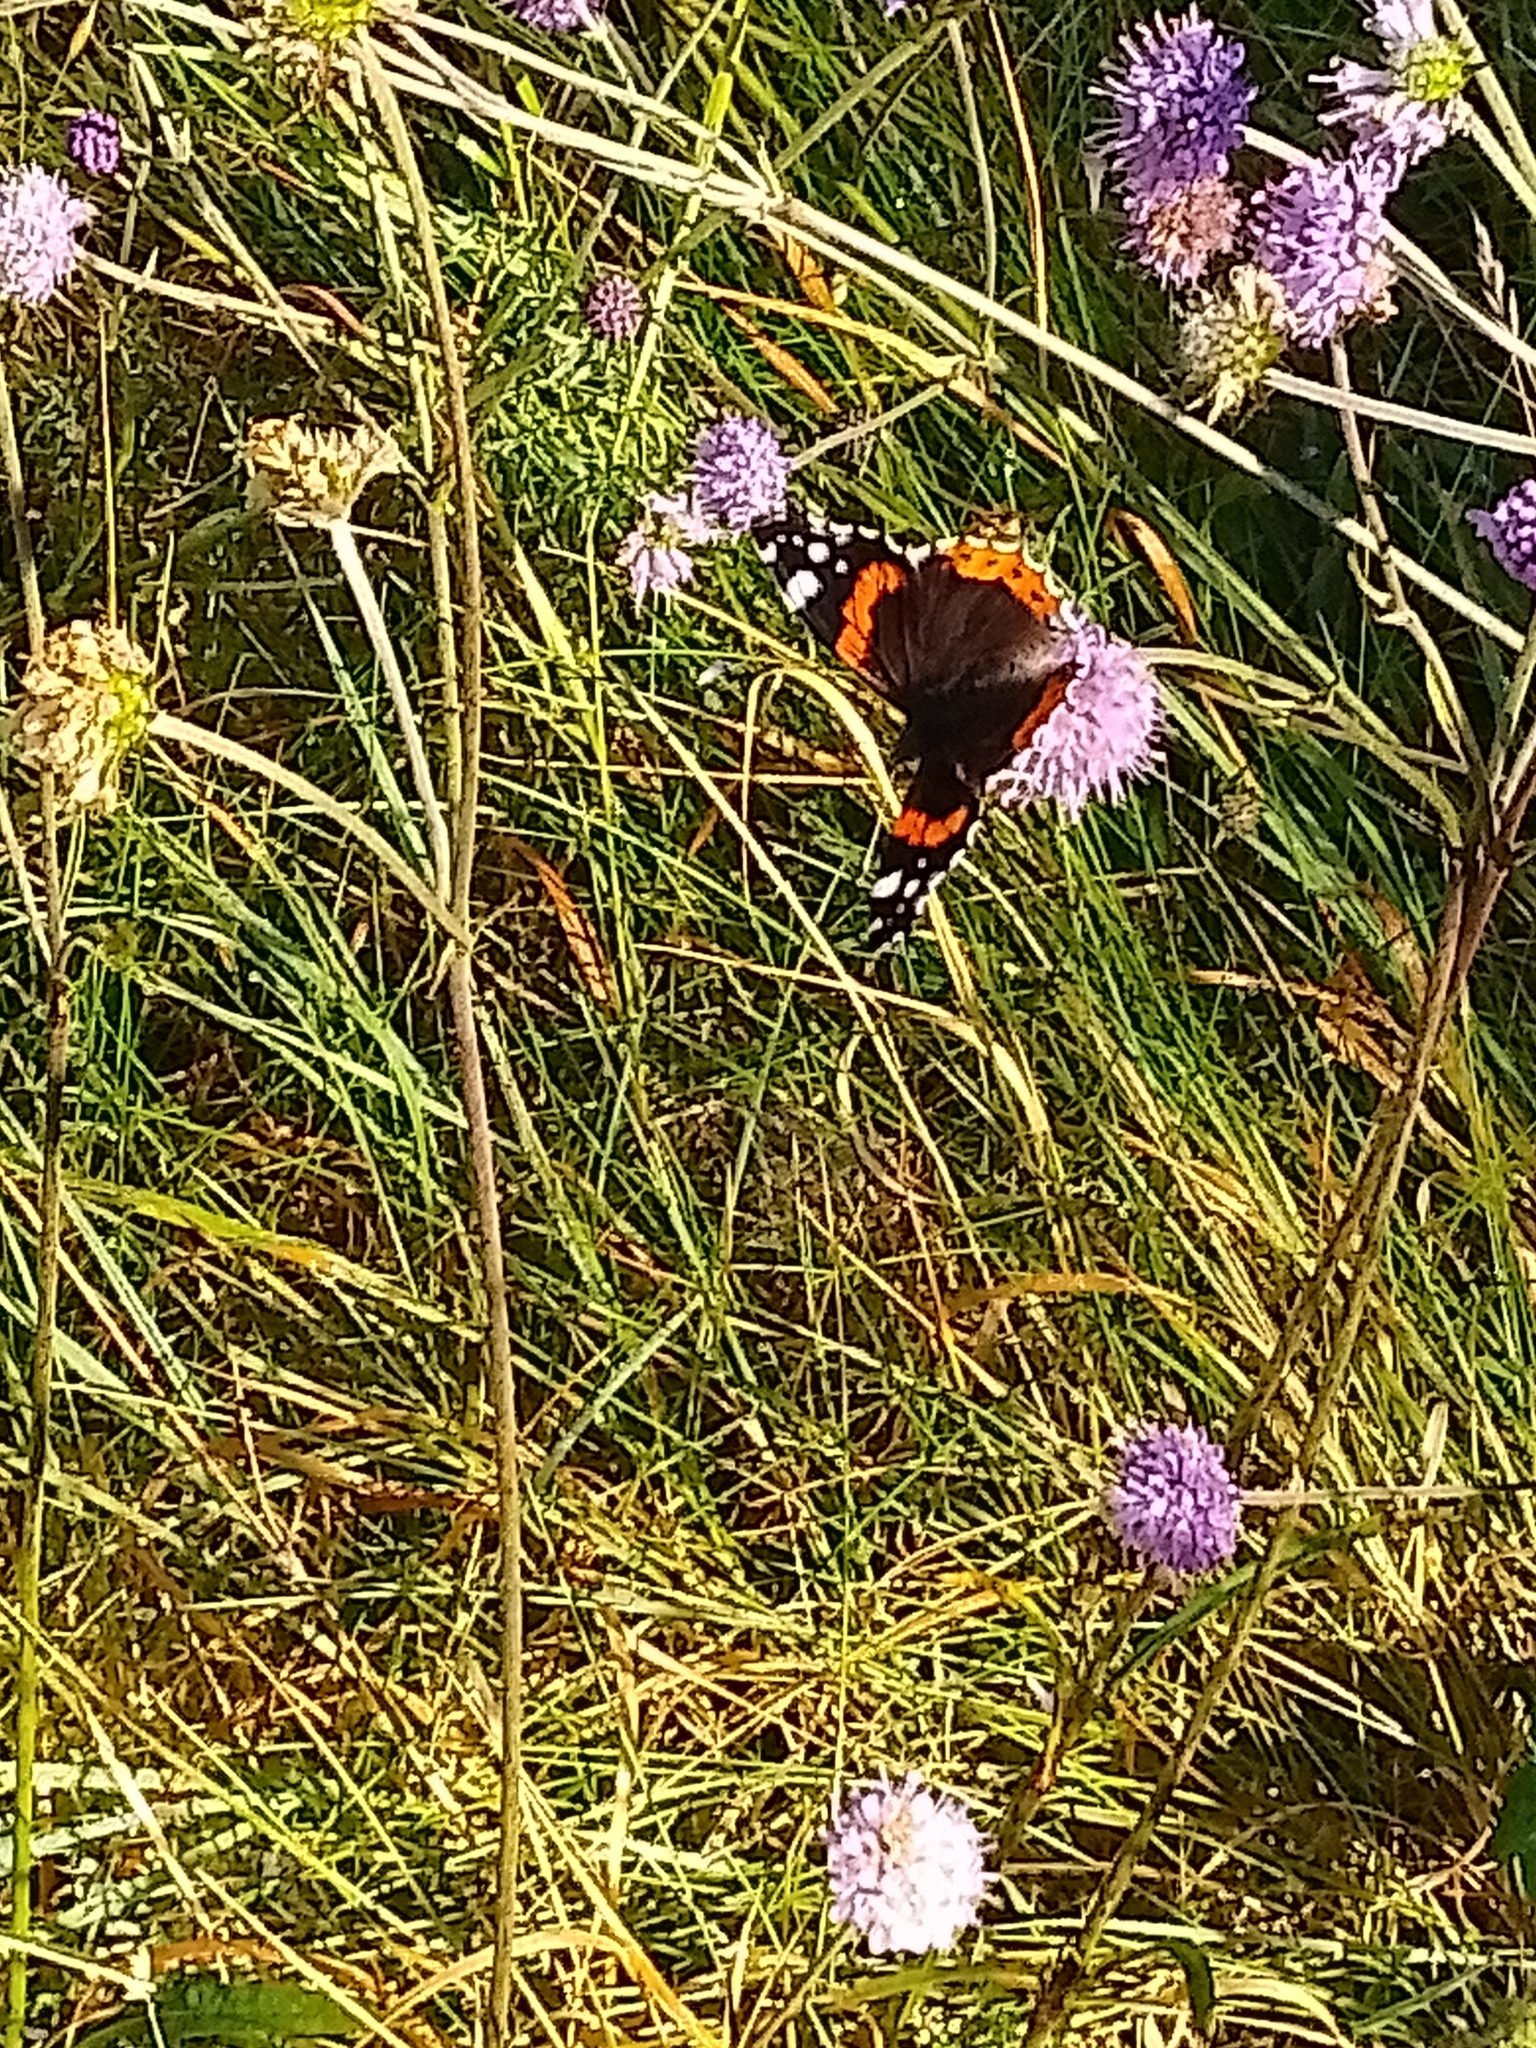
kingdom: Animalia
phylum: Arthropoda
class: Insecta
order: Lepidoptera
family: Nymphalidae
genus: Vanessa
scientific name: Vanessa atalanta
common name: Red admiral
